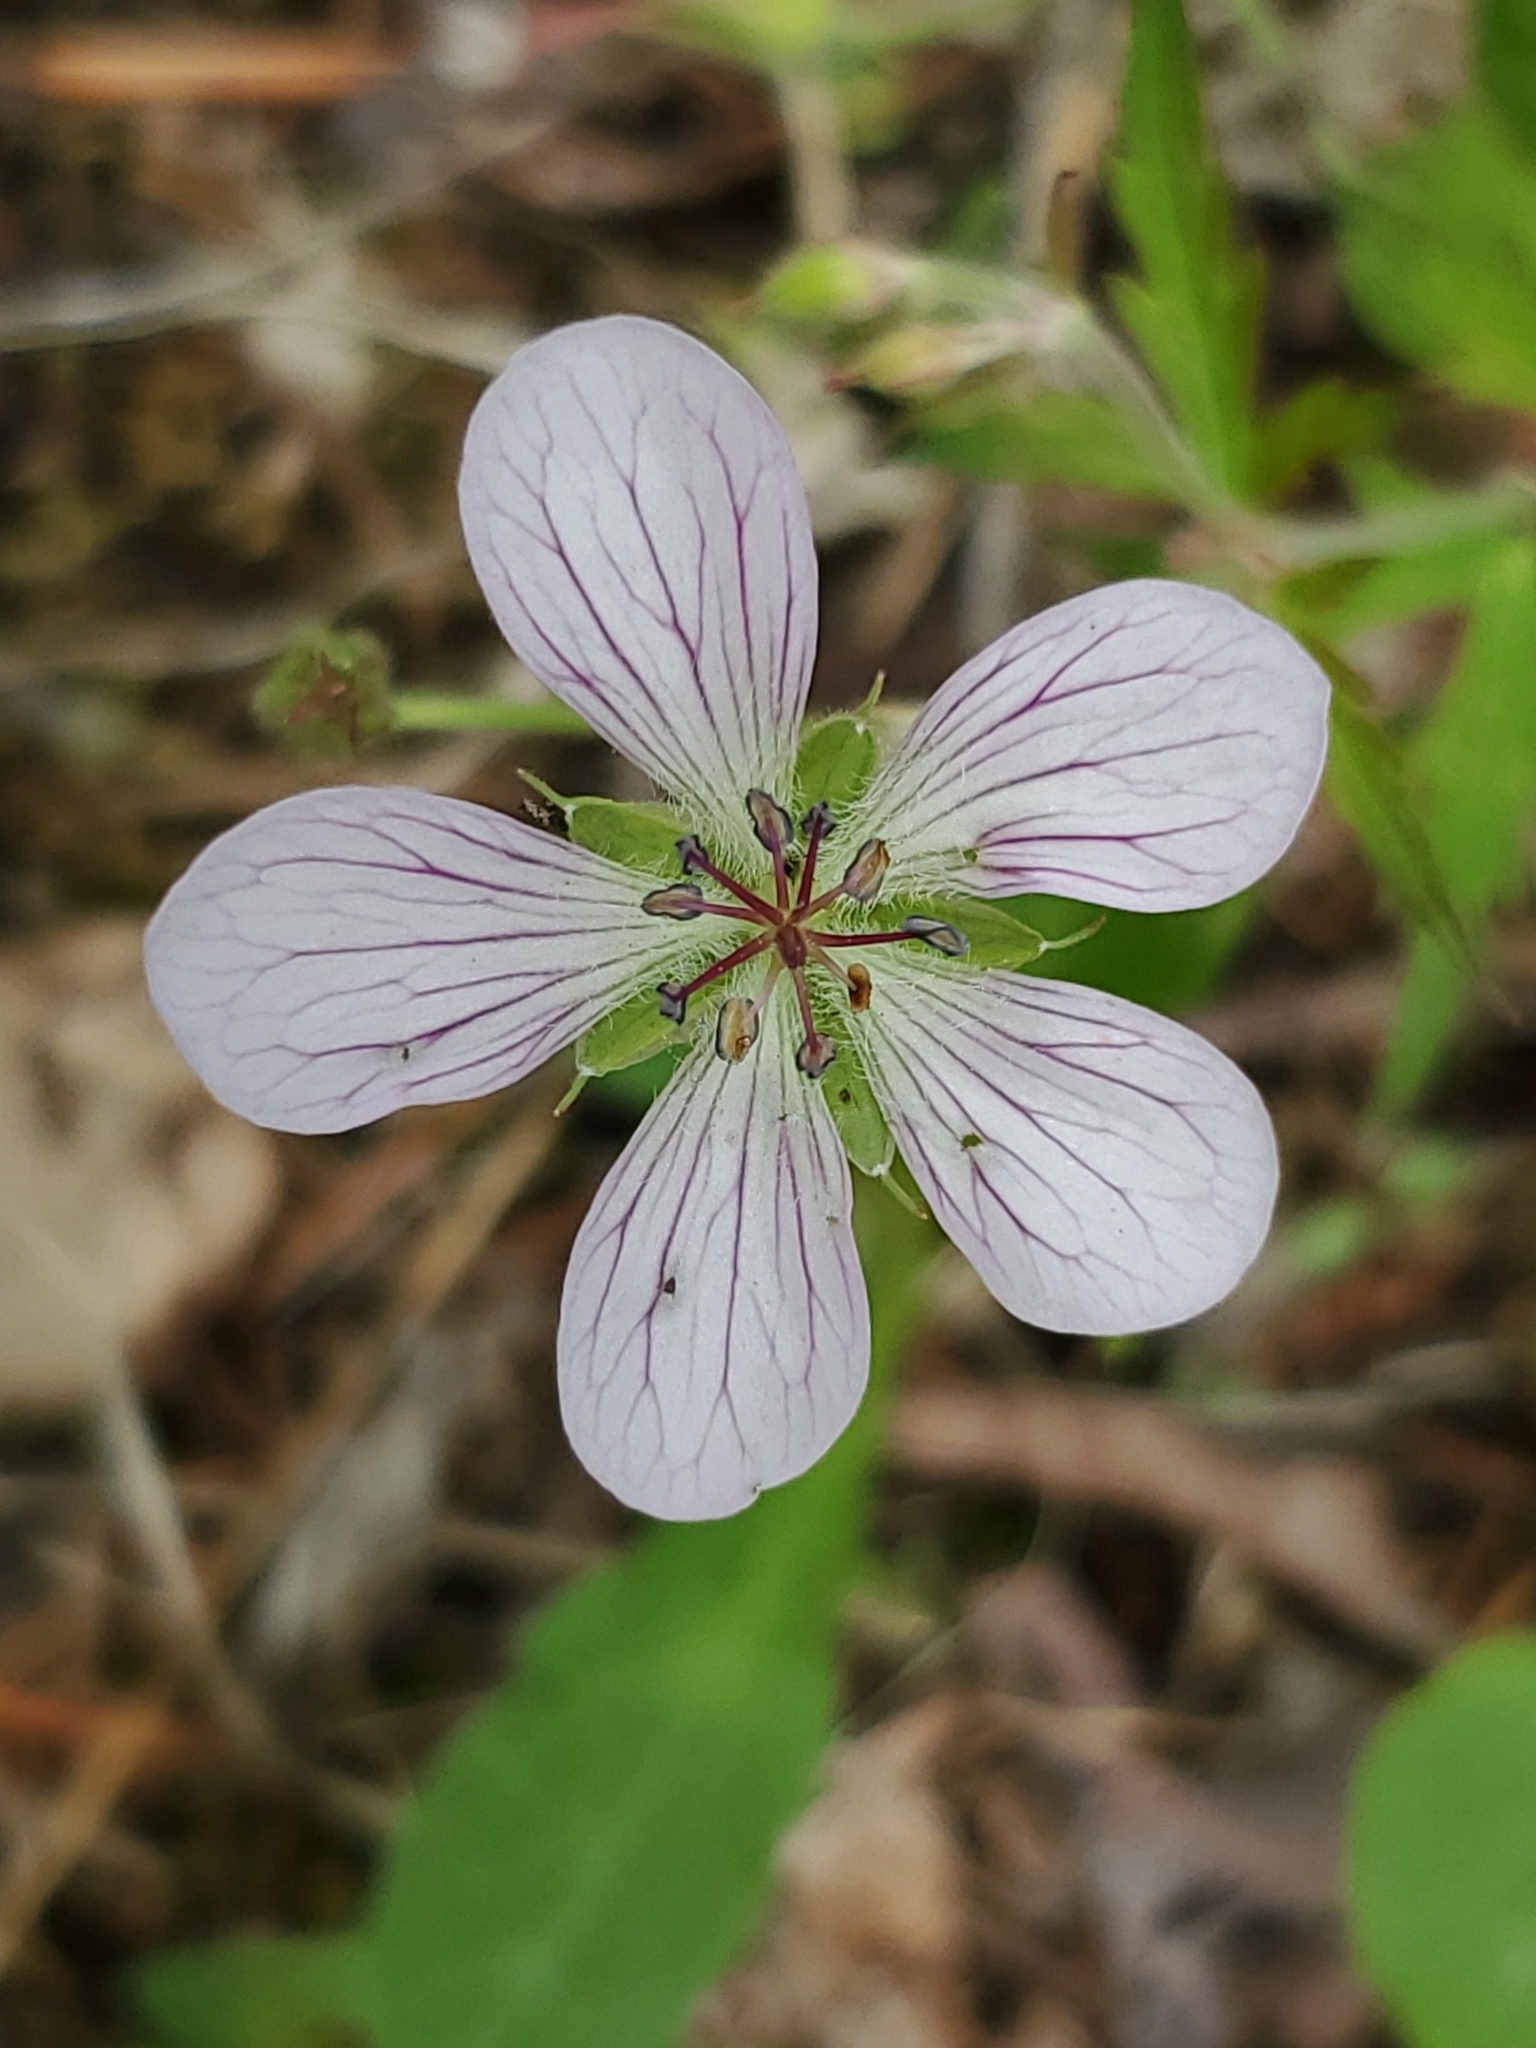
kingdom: Plantae
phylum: Tracheophyta
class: Magnoliopsida
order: Geraniales
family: Geraniaceae
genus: Geranium
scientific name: Geranium richardsonii
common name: Richardson's crane's-bill
